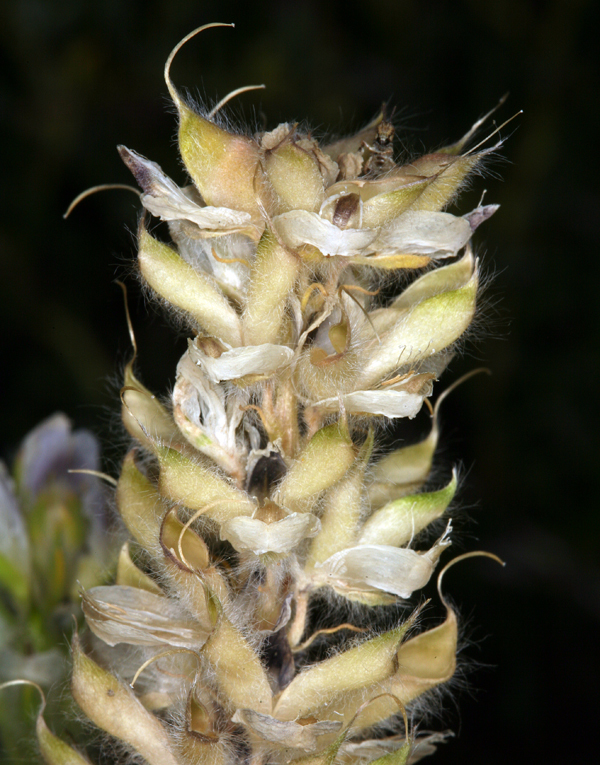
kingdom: Plantae
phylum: Tracheophyta
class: Magnoliopsida
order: Fabales
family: Fabaceae
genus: Lupinus
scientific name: Lupinus malacophyllus
